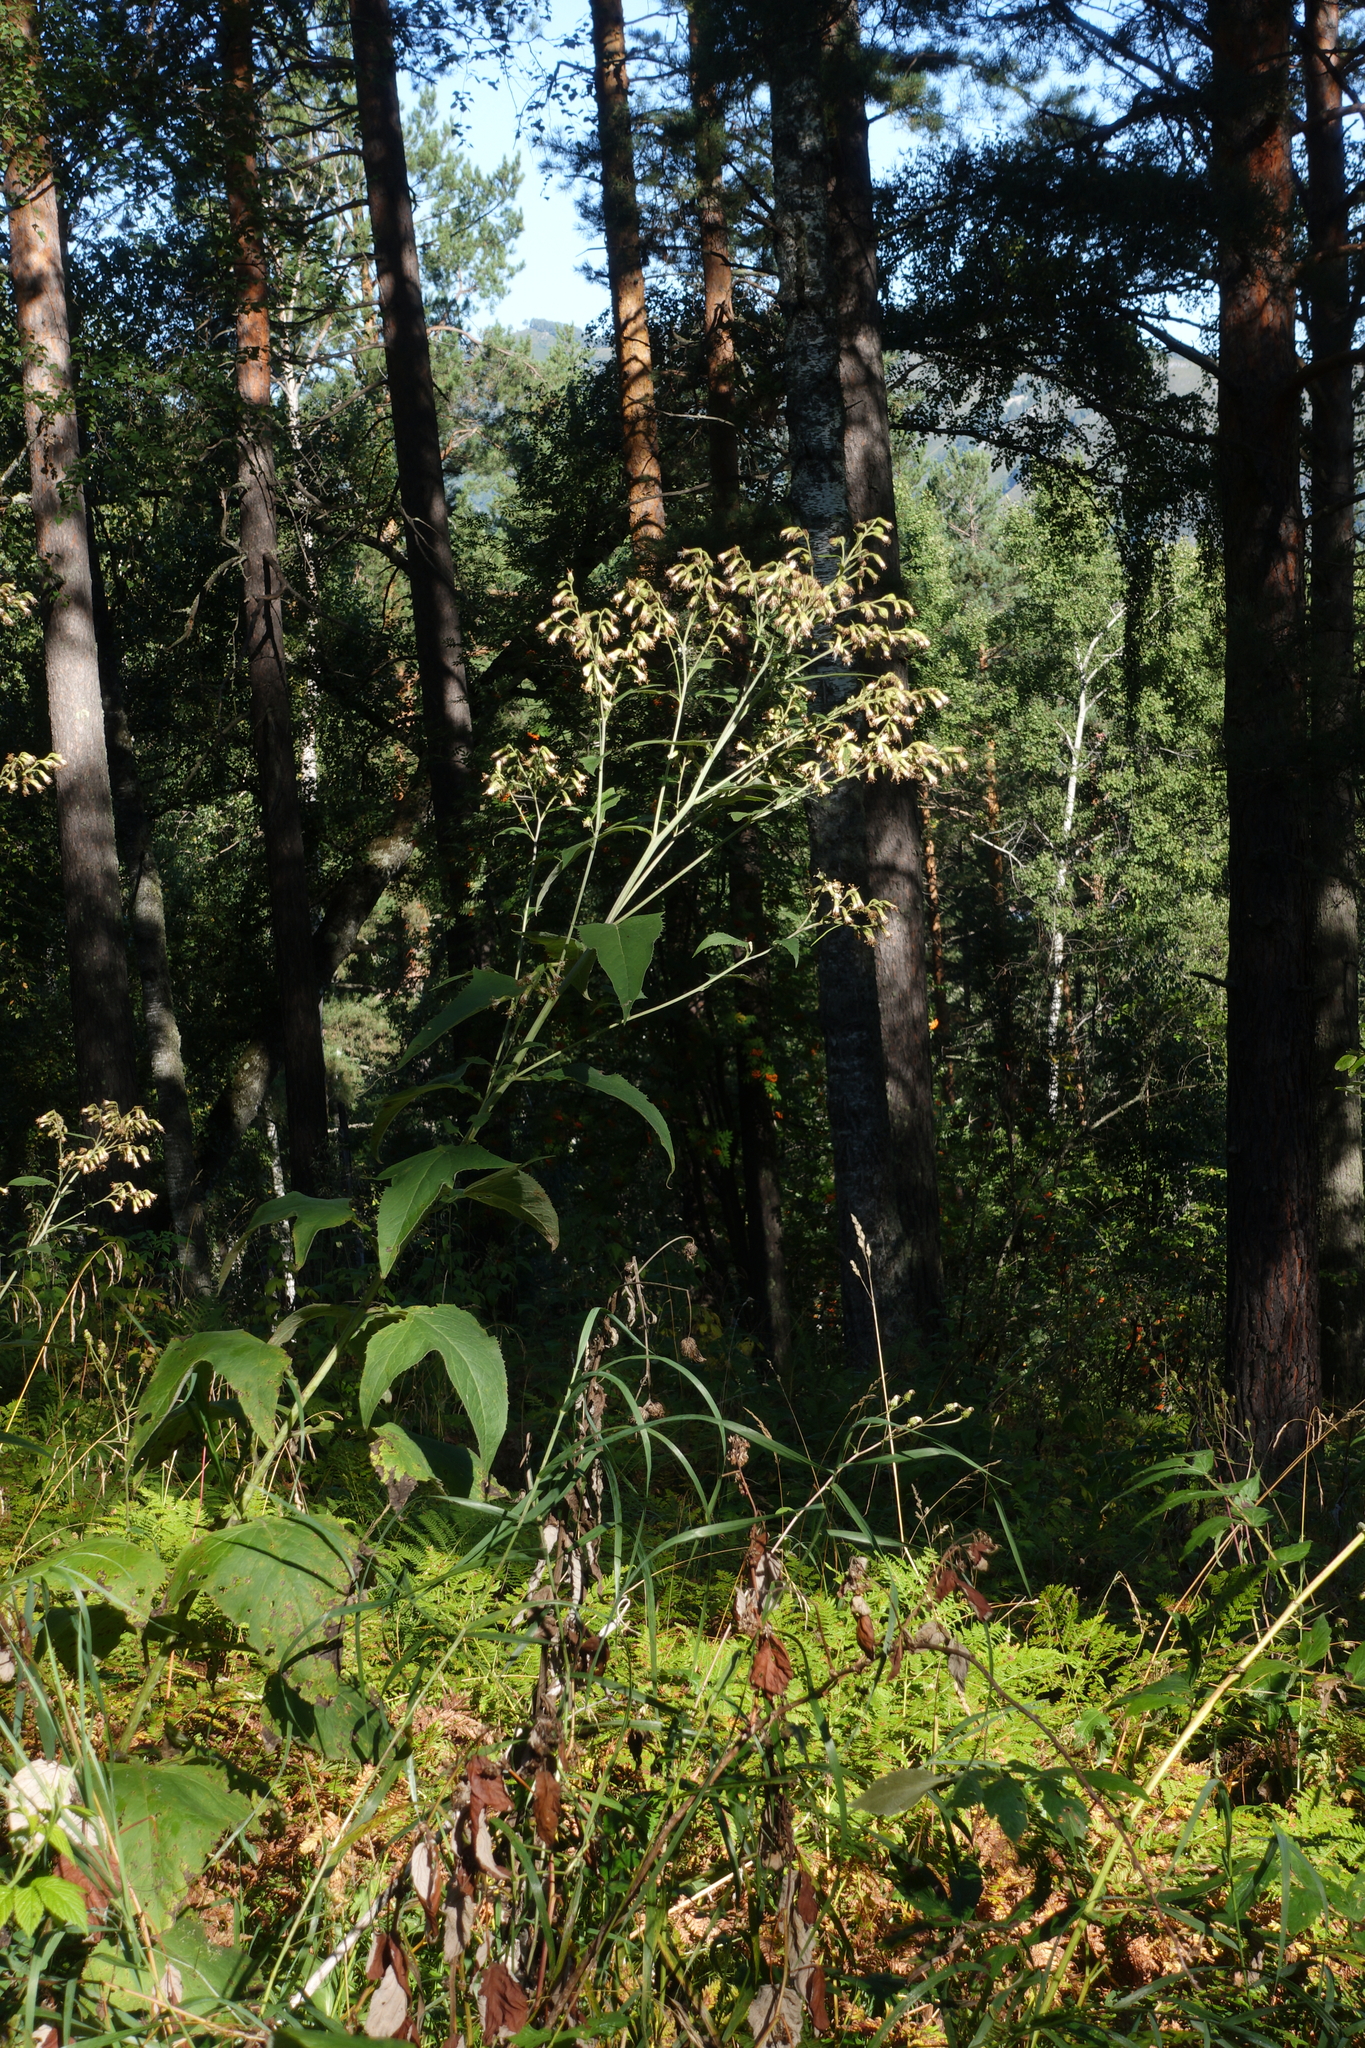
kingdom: Plantae
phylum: Tracheophyta
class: Magnoliopsida
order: Asterales
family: Asteraceae
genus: Parasenecio
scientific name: Parasenecio hastatus
